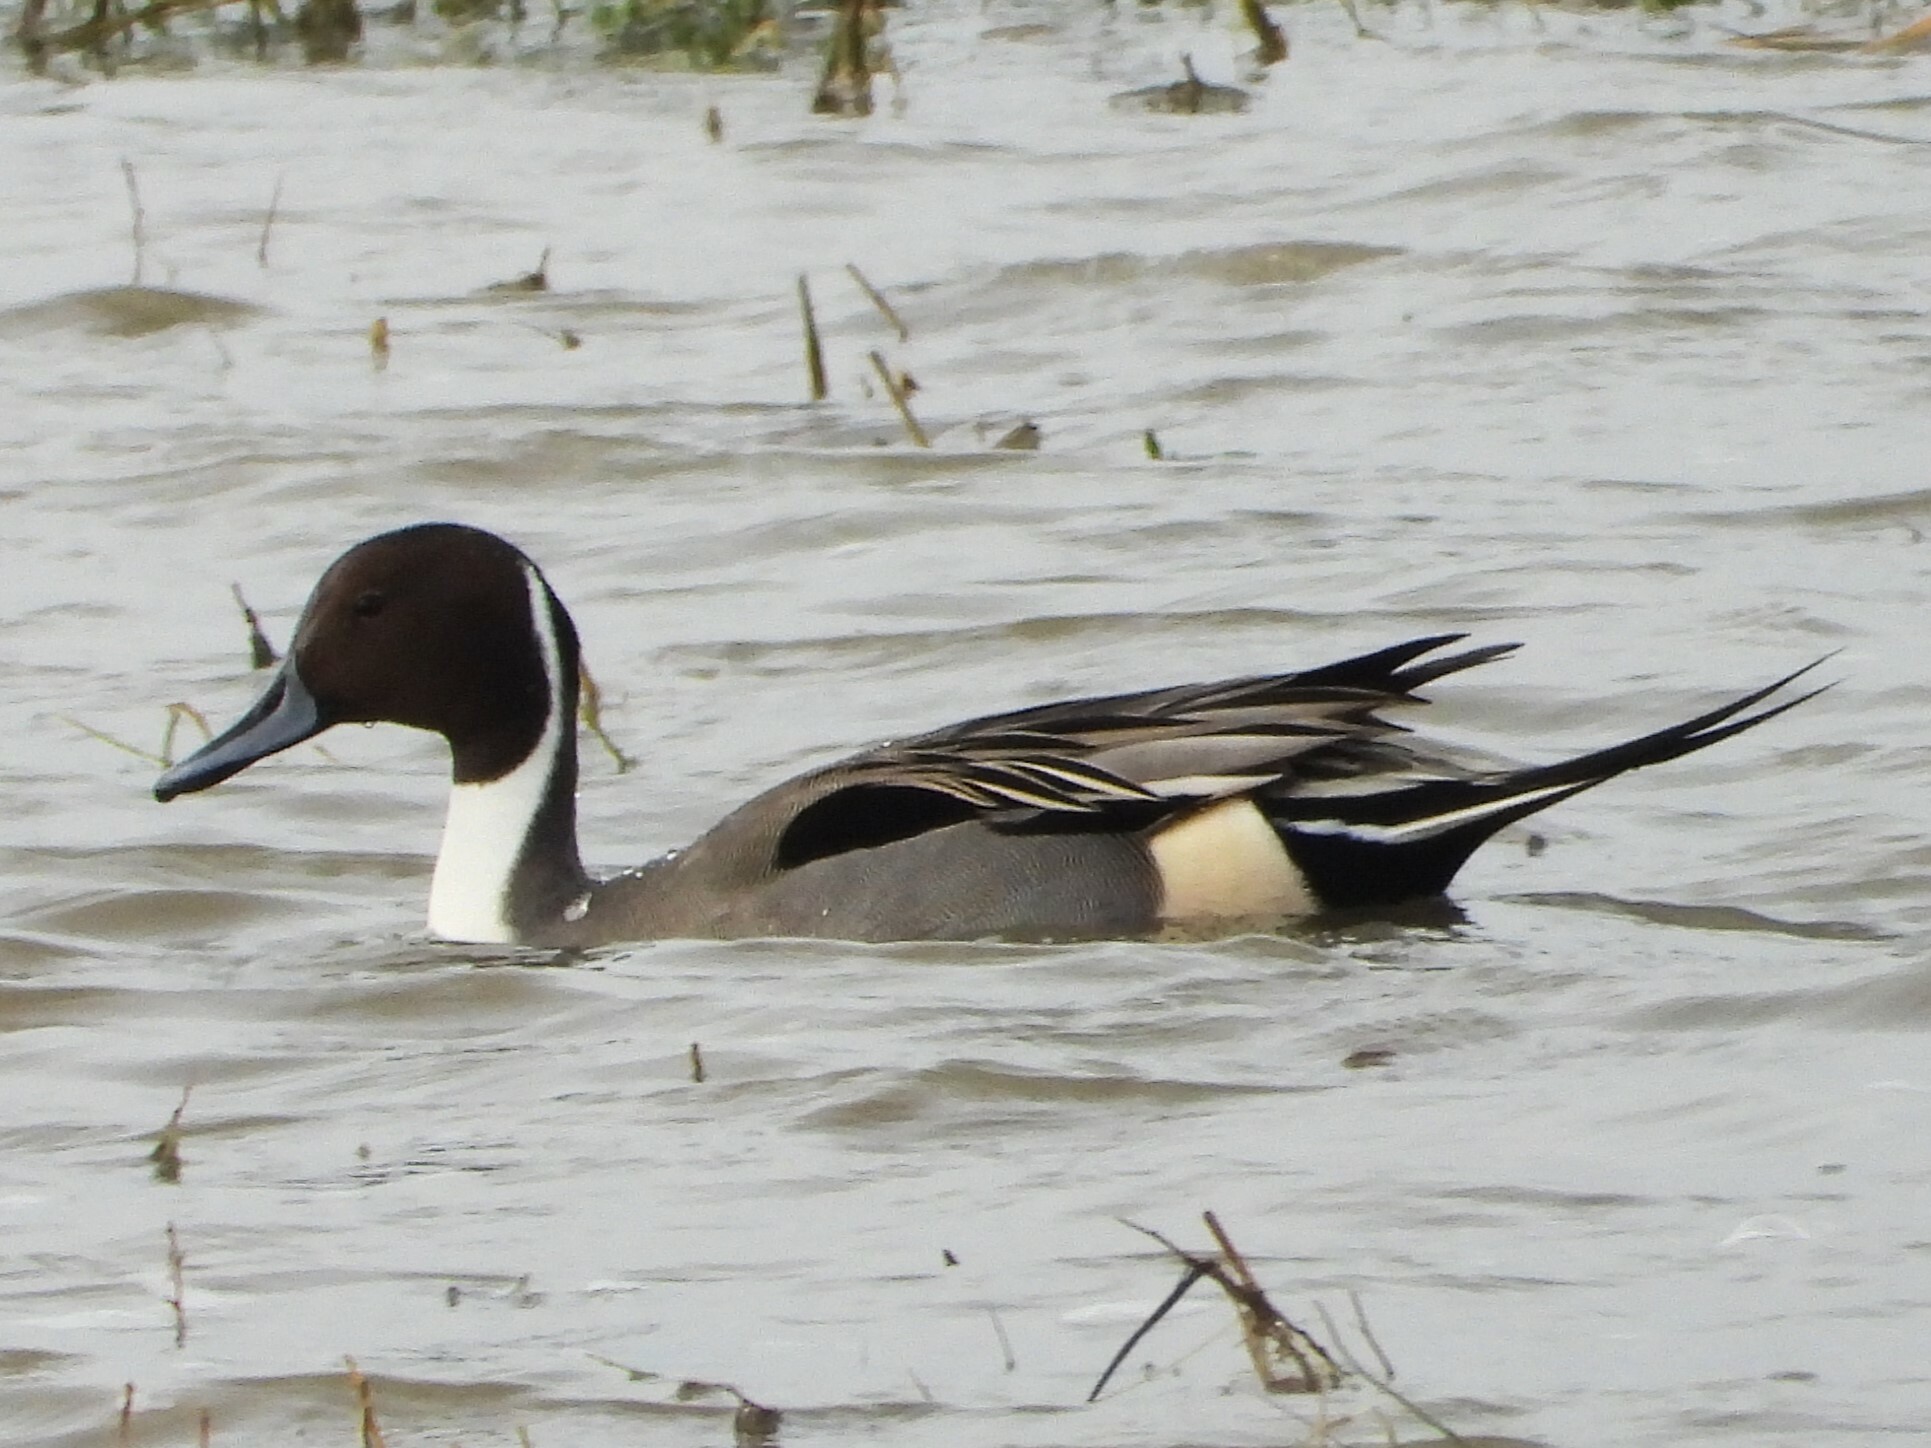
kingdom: Animalia
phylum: Chordata
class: Aves
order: Anseriformes
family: Anatidae
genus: Anas
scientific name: Anas acuta
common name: Northern pintail
